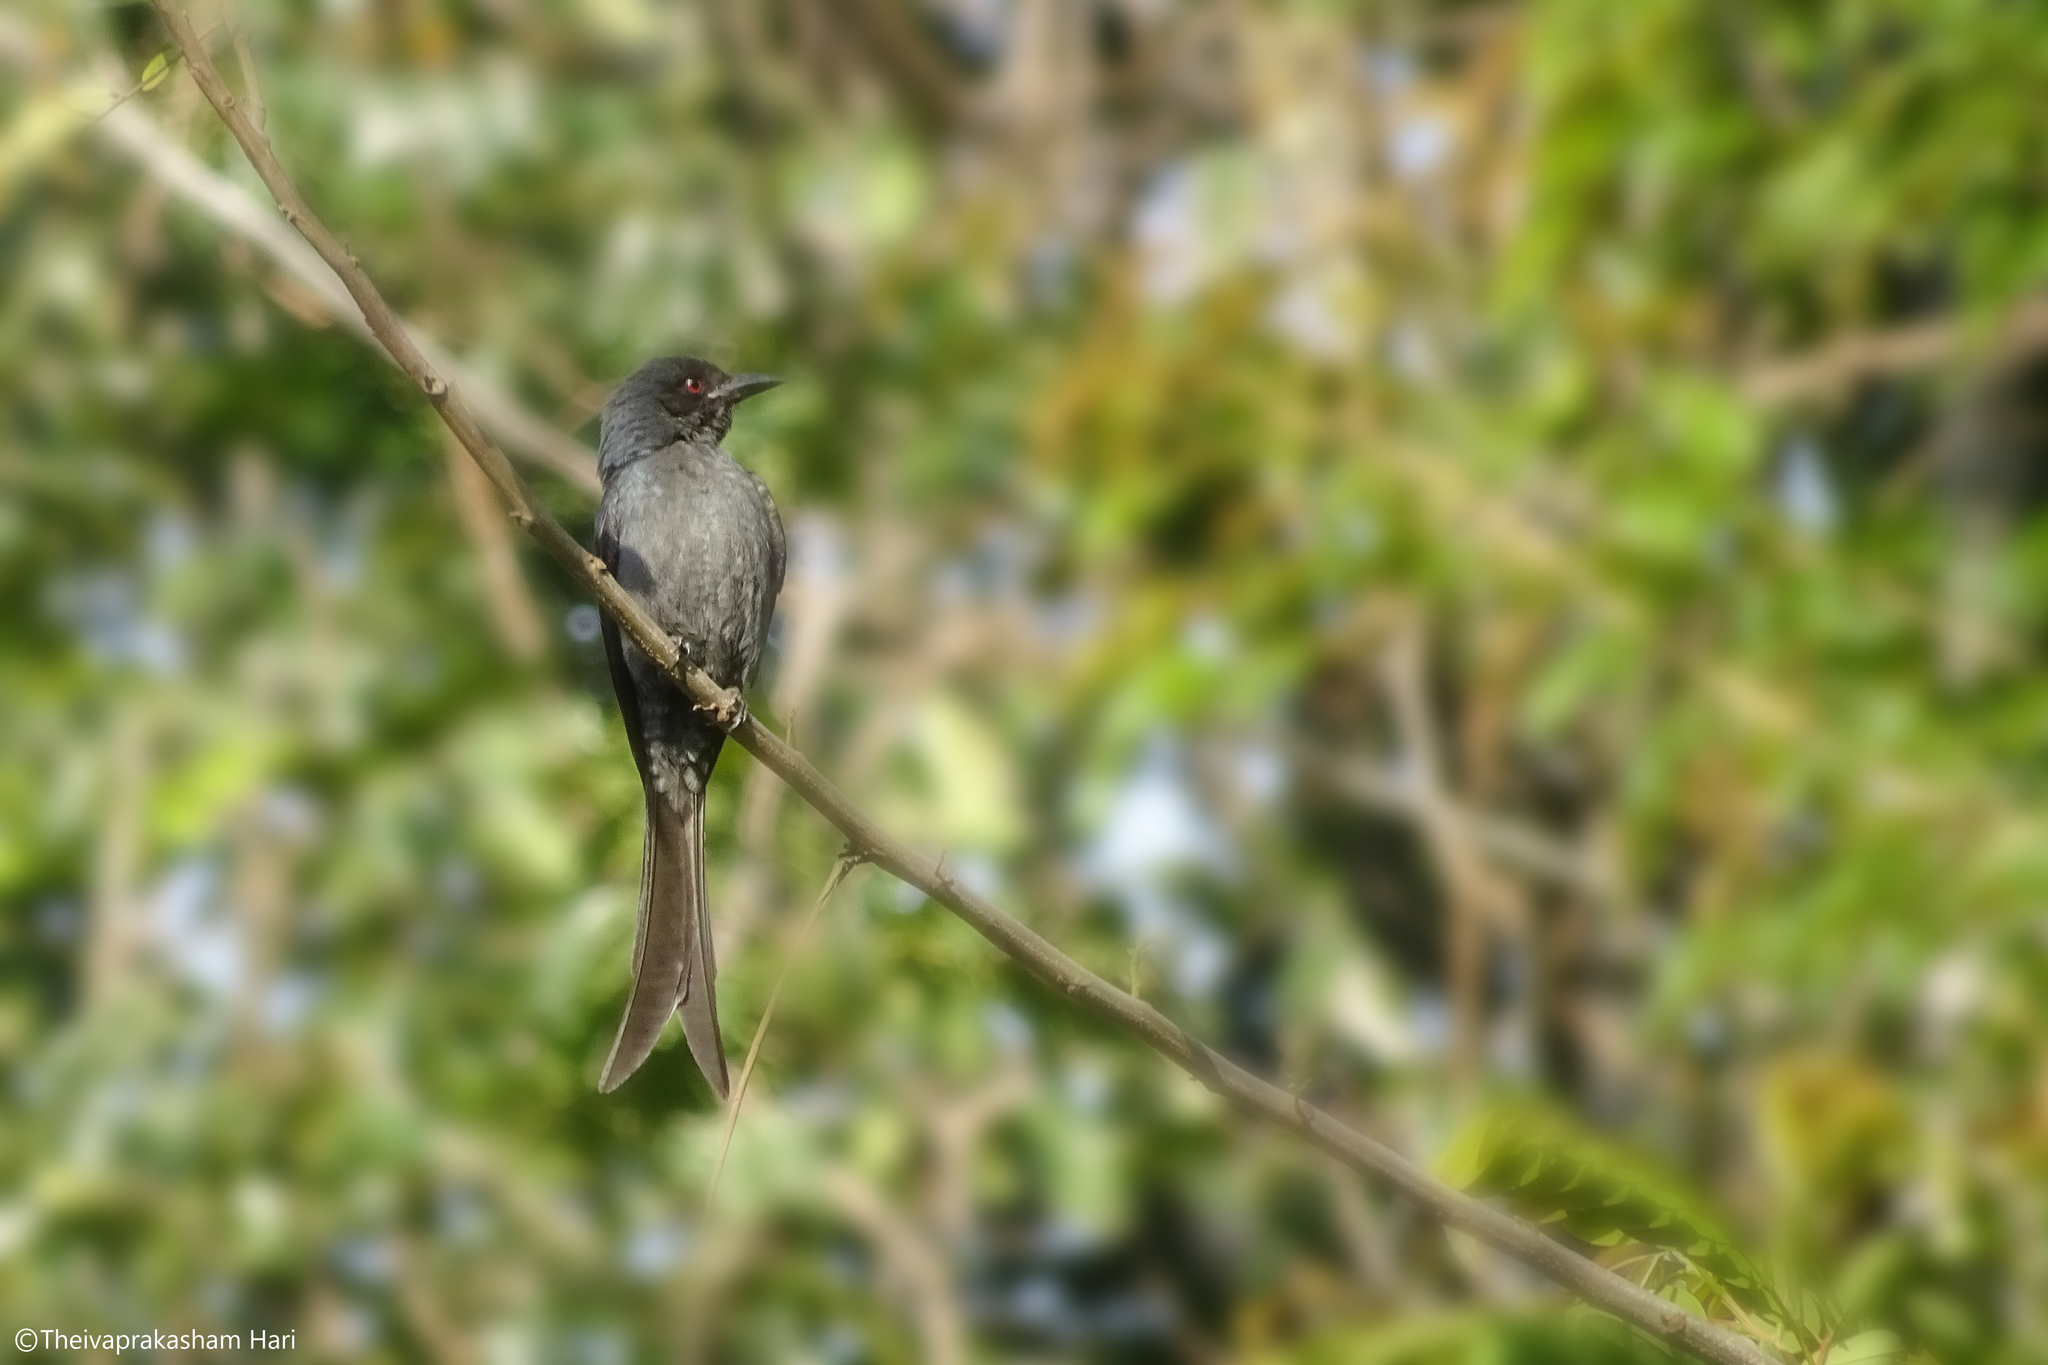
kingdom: Animalia
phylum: Chordata
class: Aves
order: Passeriformes
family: Dicruridae
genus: Dicrurus
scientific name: Dicrurus leucophaeus
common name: Ashy drongo
